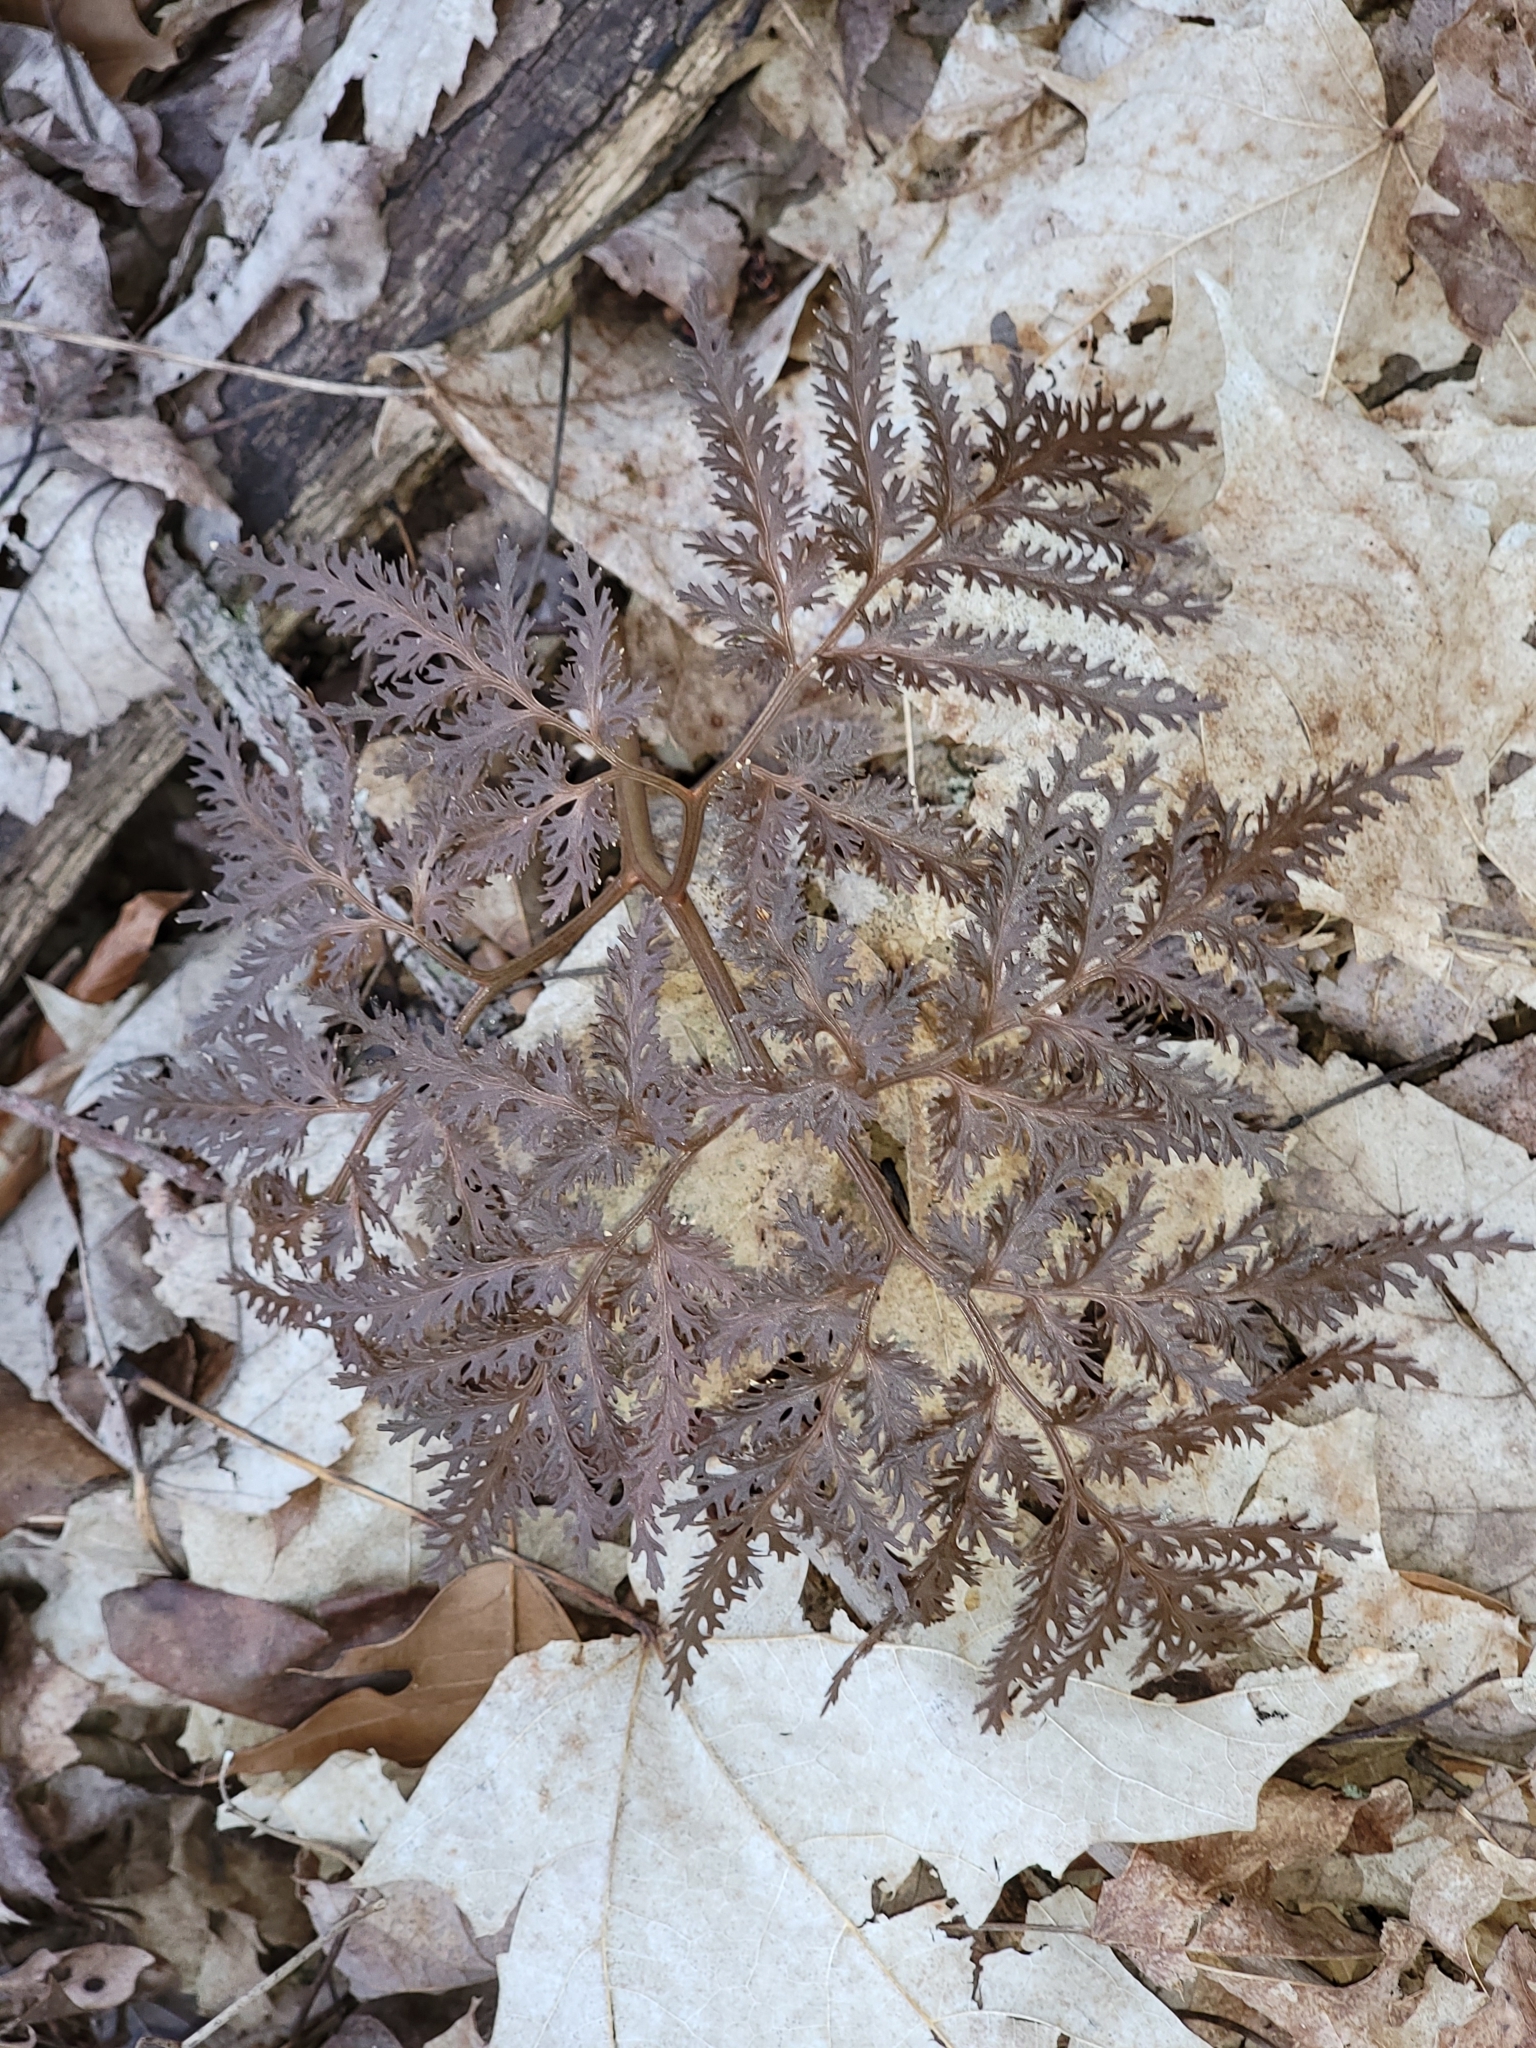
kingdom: Plantae
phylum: Tracheophyta
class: Polypodiopsida
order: Ophioglossales
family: Ophioglossaceae
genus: Sceptridium
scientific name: Sceptridium dissectum
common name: Cut-leaved grapefern
